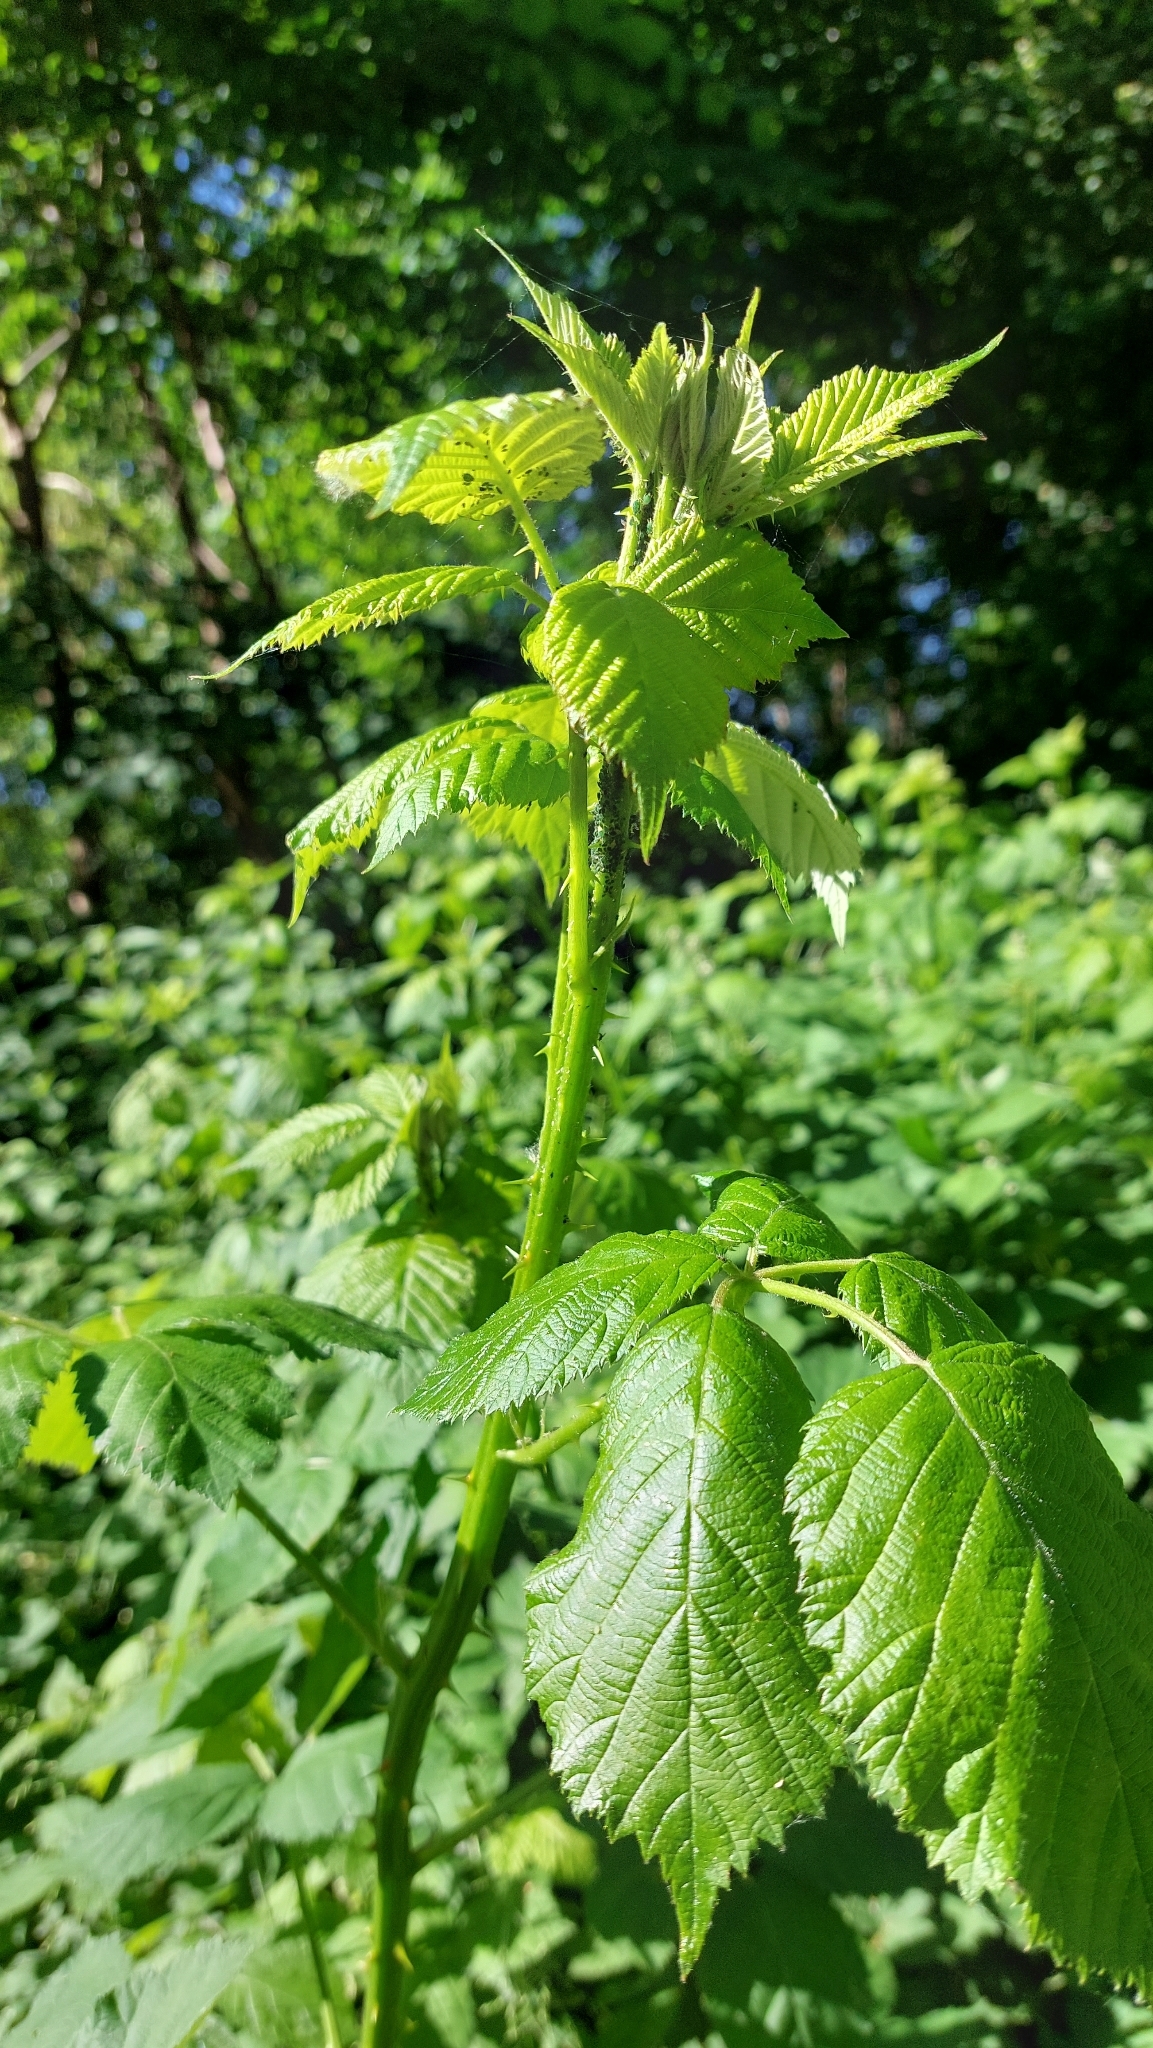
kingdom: Plantae
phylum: Tracheophyta
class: Magnoliopsida
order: Rosales
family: Rosaceae
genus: Rubus
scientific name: Rubus
